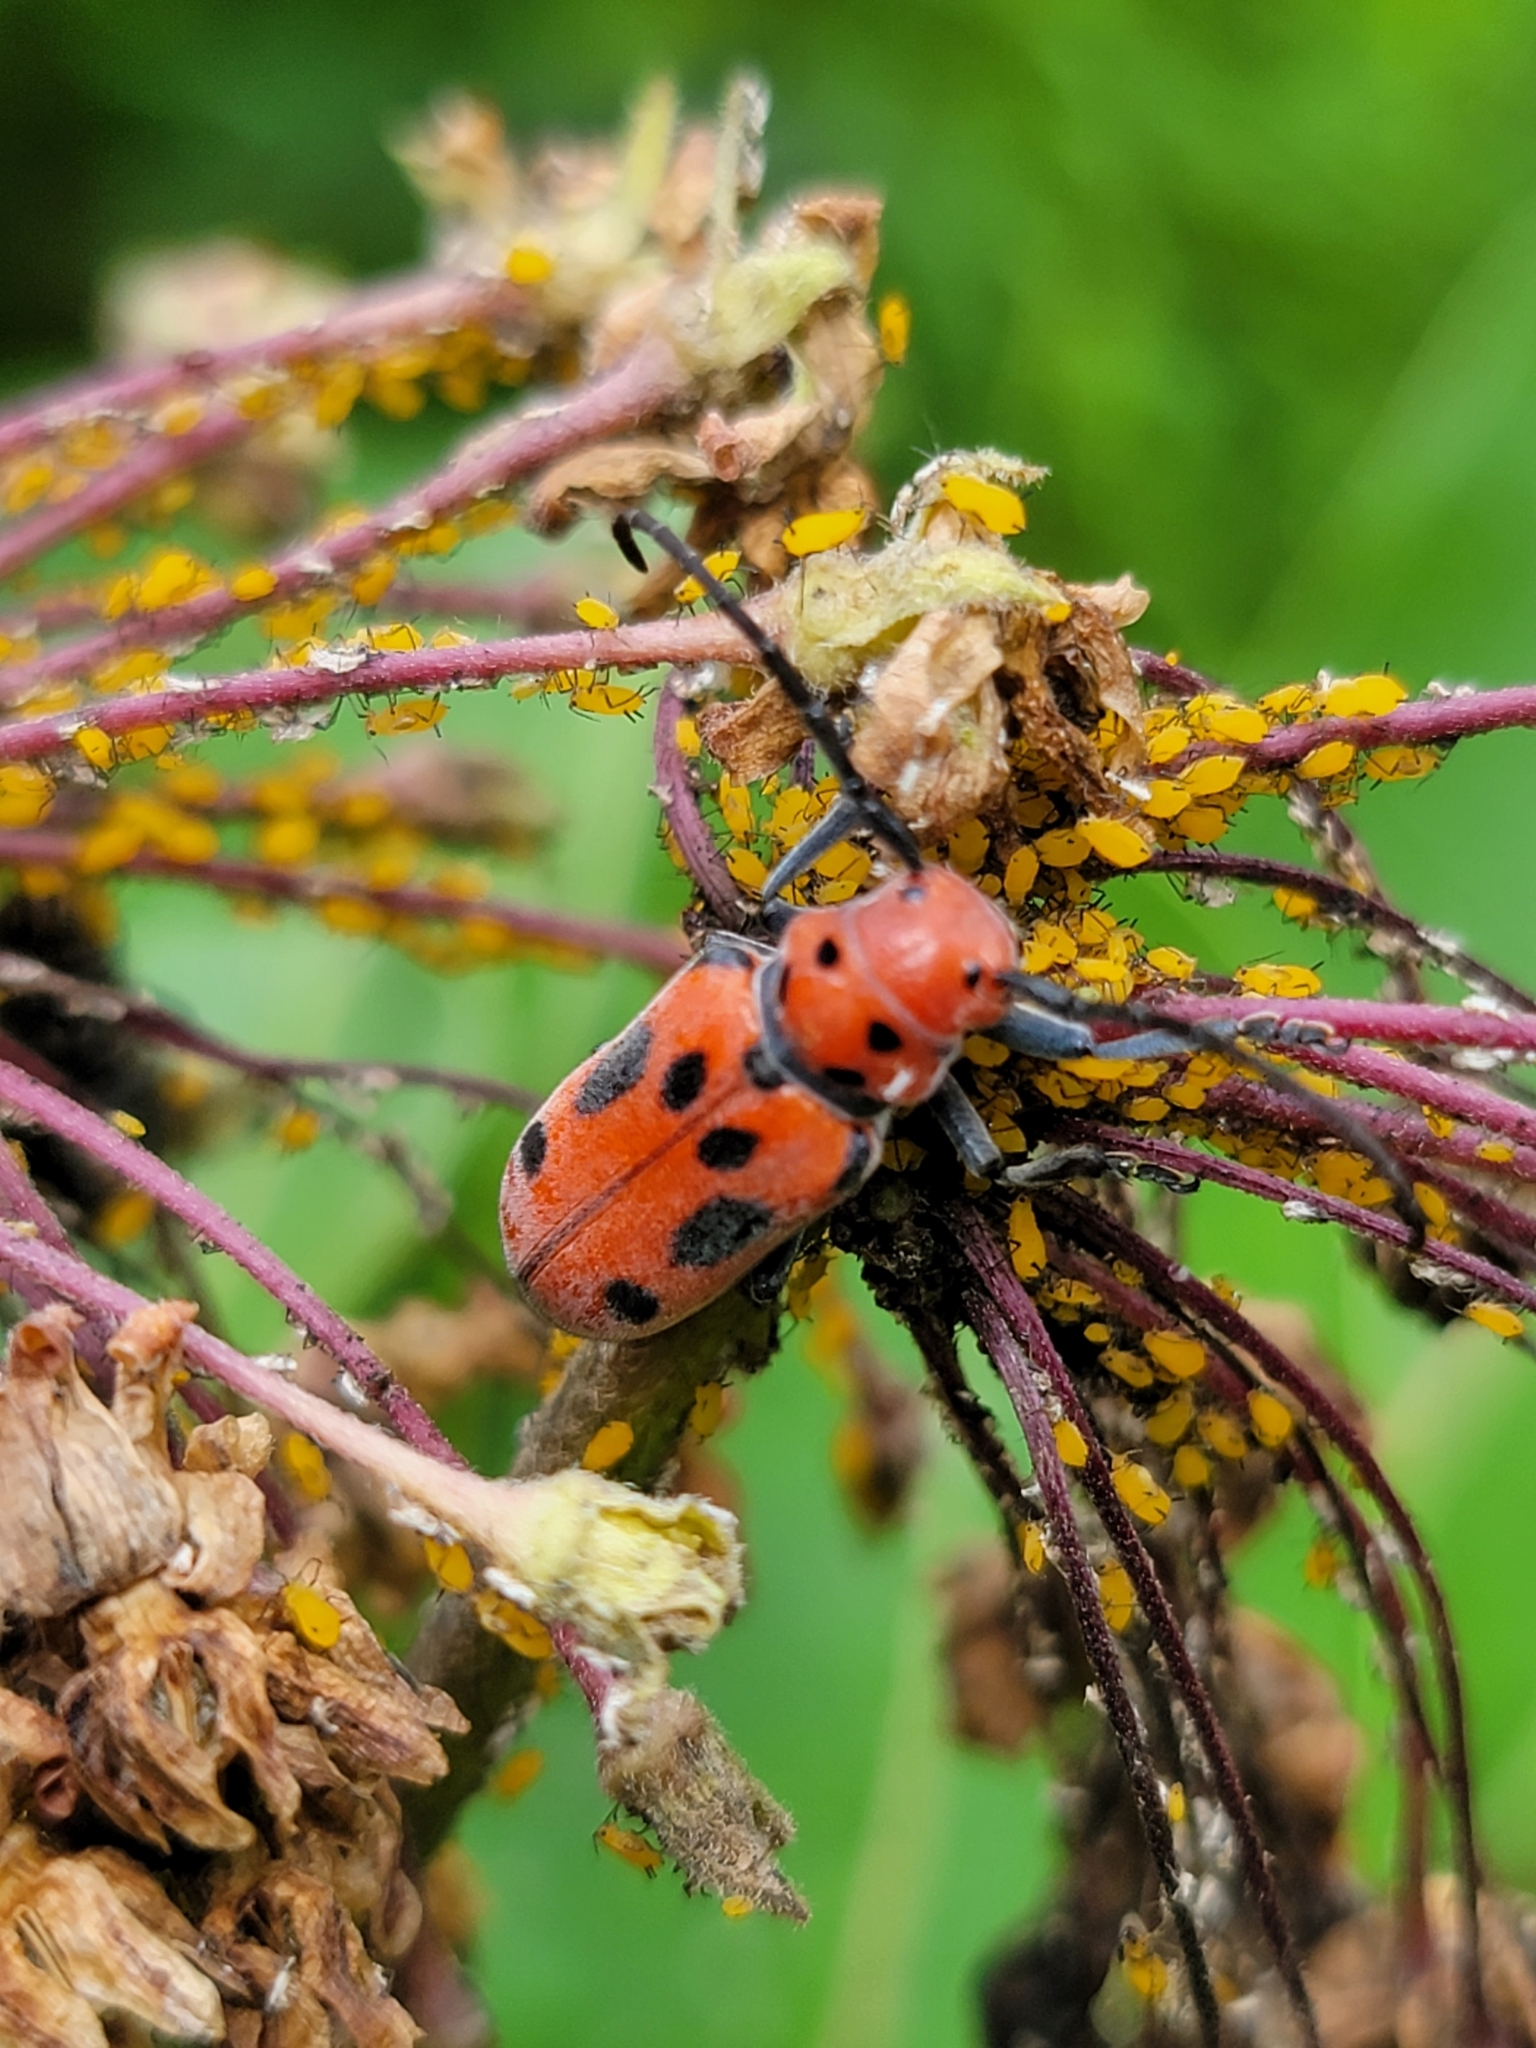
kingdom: Animalia
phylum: Arthropoda
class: Insecta
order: Coleoptera
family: Cerambycidae
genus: Tetraopes
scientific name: Tetraopes tetrophthalmus
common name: Red milkweed beetle
